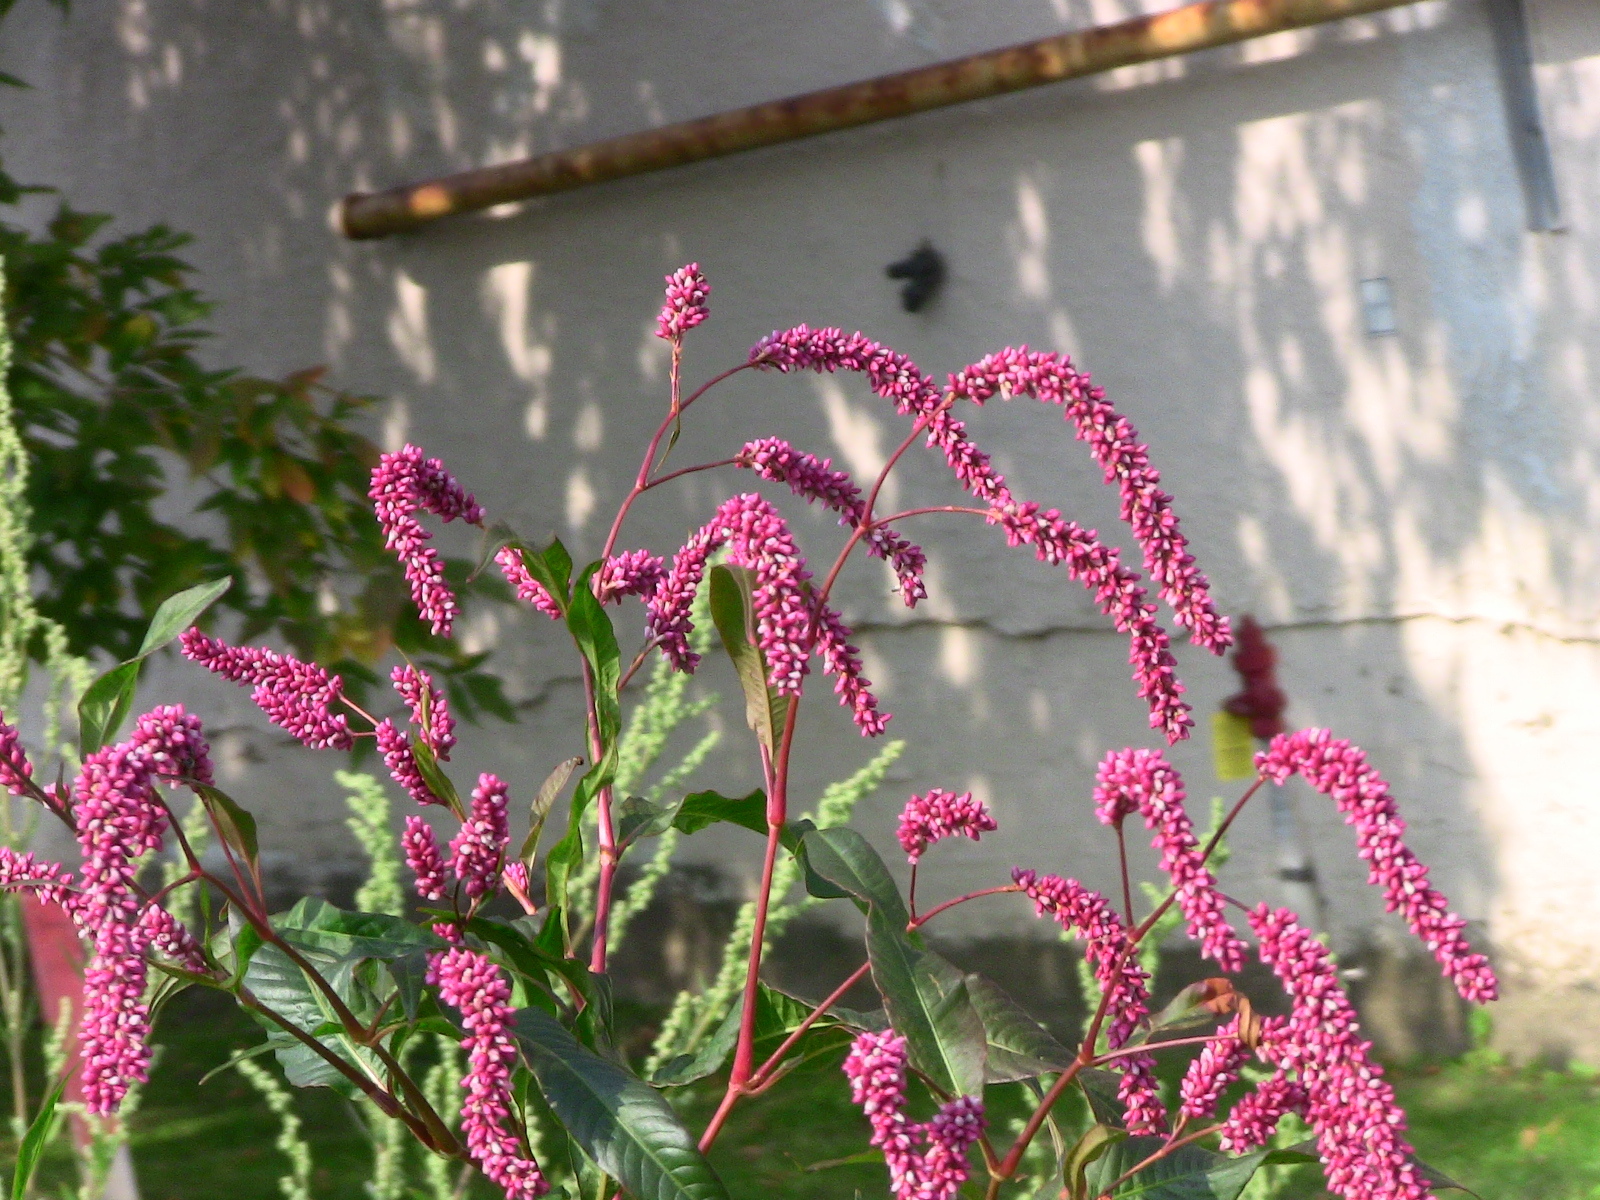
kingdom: Plantae
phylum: Tracheophyta
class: Magnoliopsida
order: Caryophyllales
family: Polygonaceae
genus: Persicaria
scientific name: Persicaria lapathifolia
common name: Curlytop knotweed
